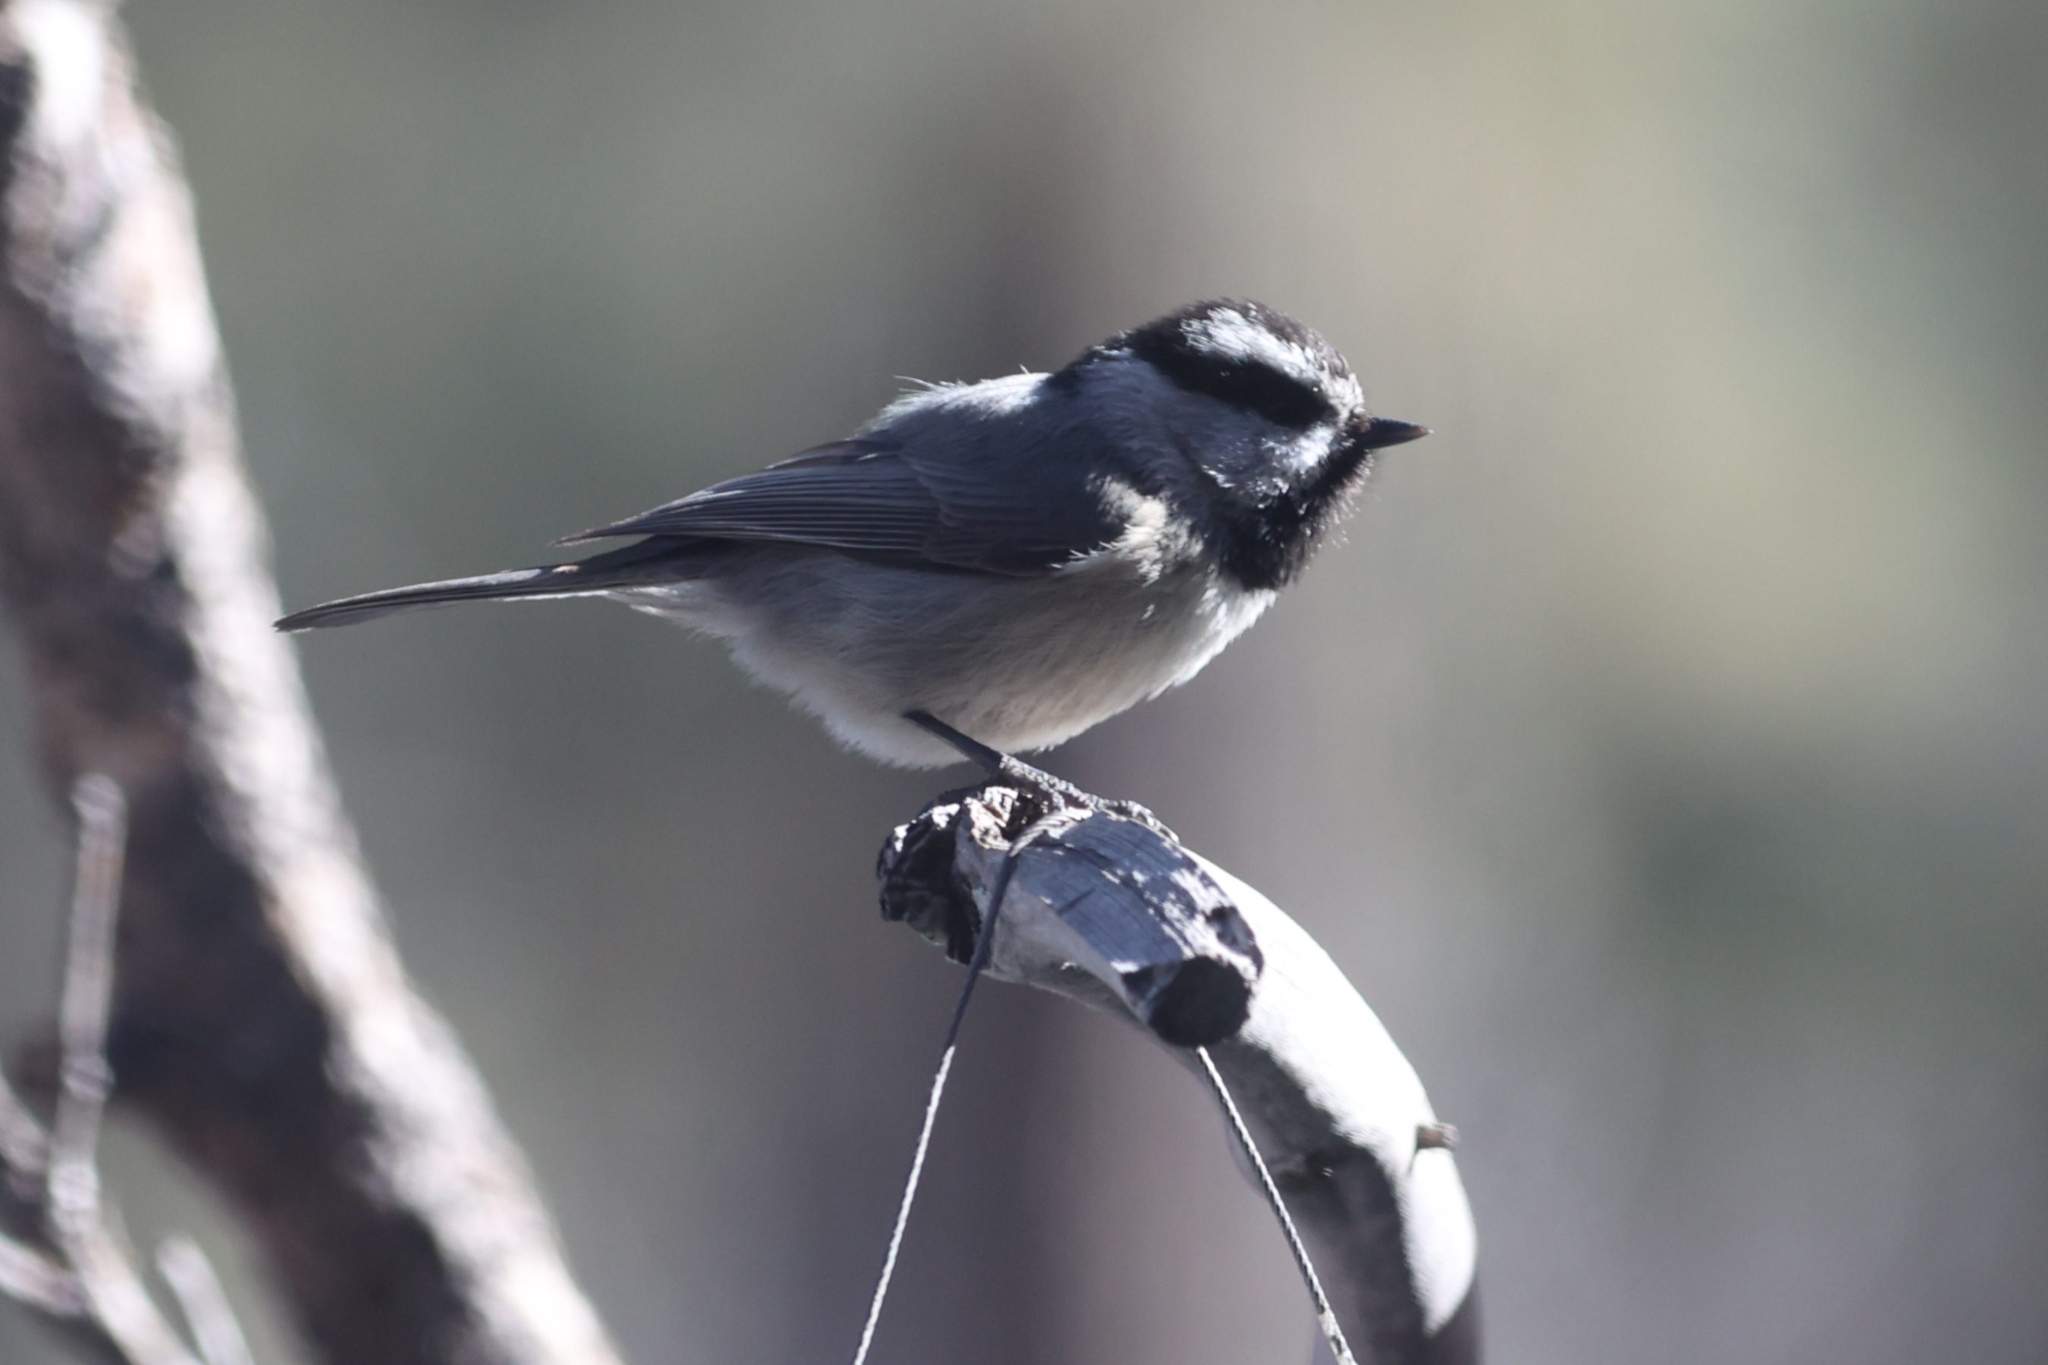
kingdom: Animalia
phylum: Chordata
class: Aves
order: Passeriformes
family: Paridae
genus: Poecile
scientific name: Poecile gambeli
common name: Mountain chickadee
